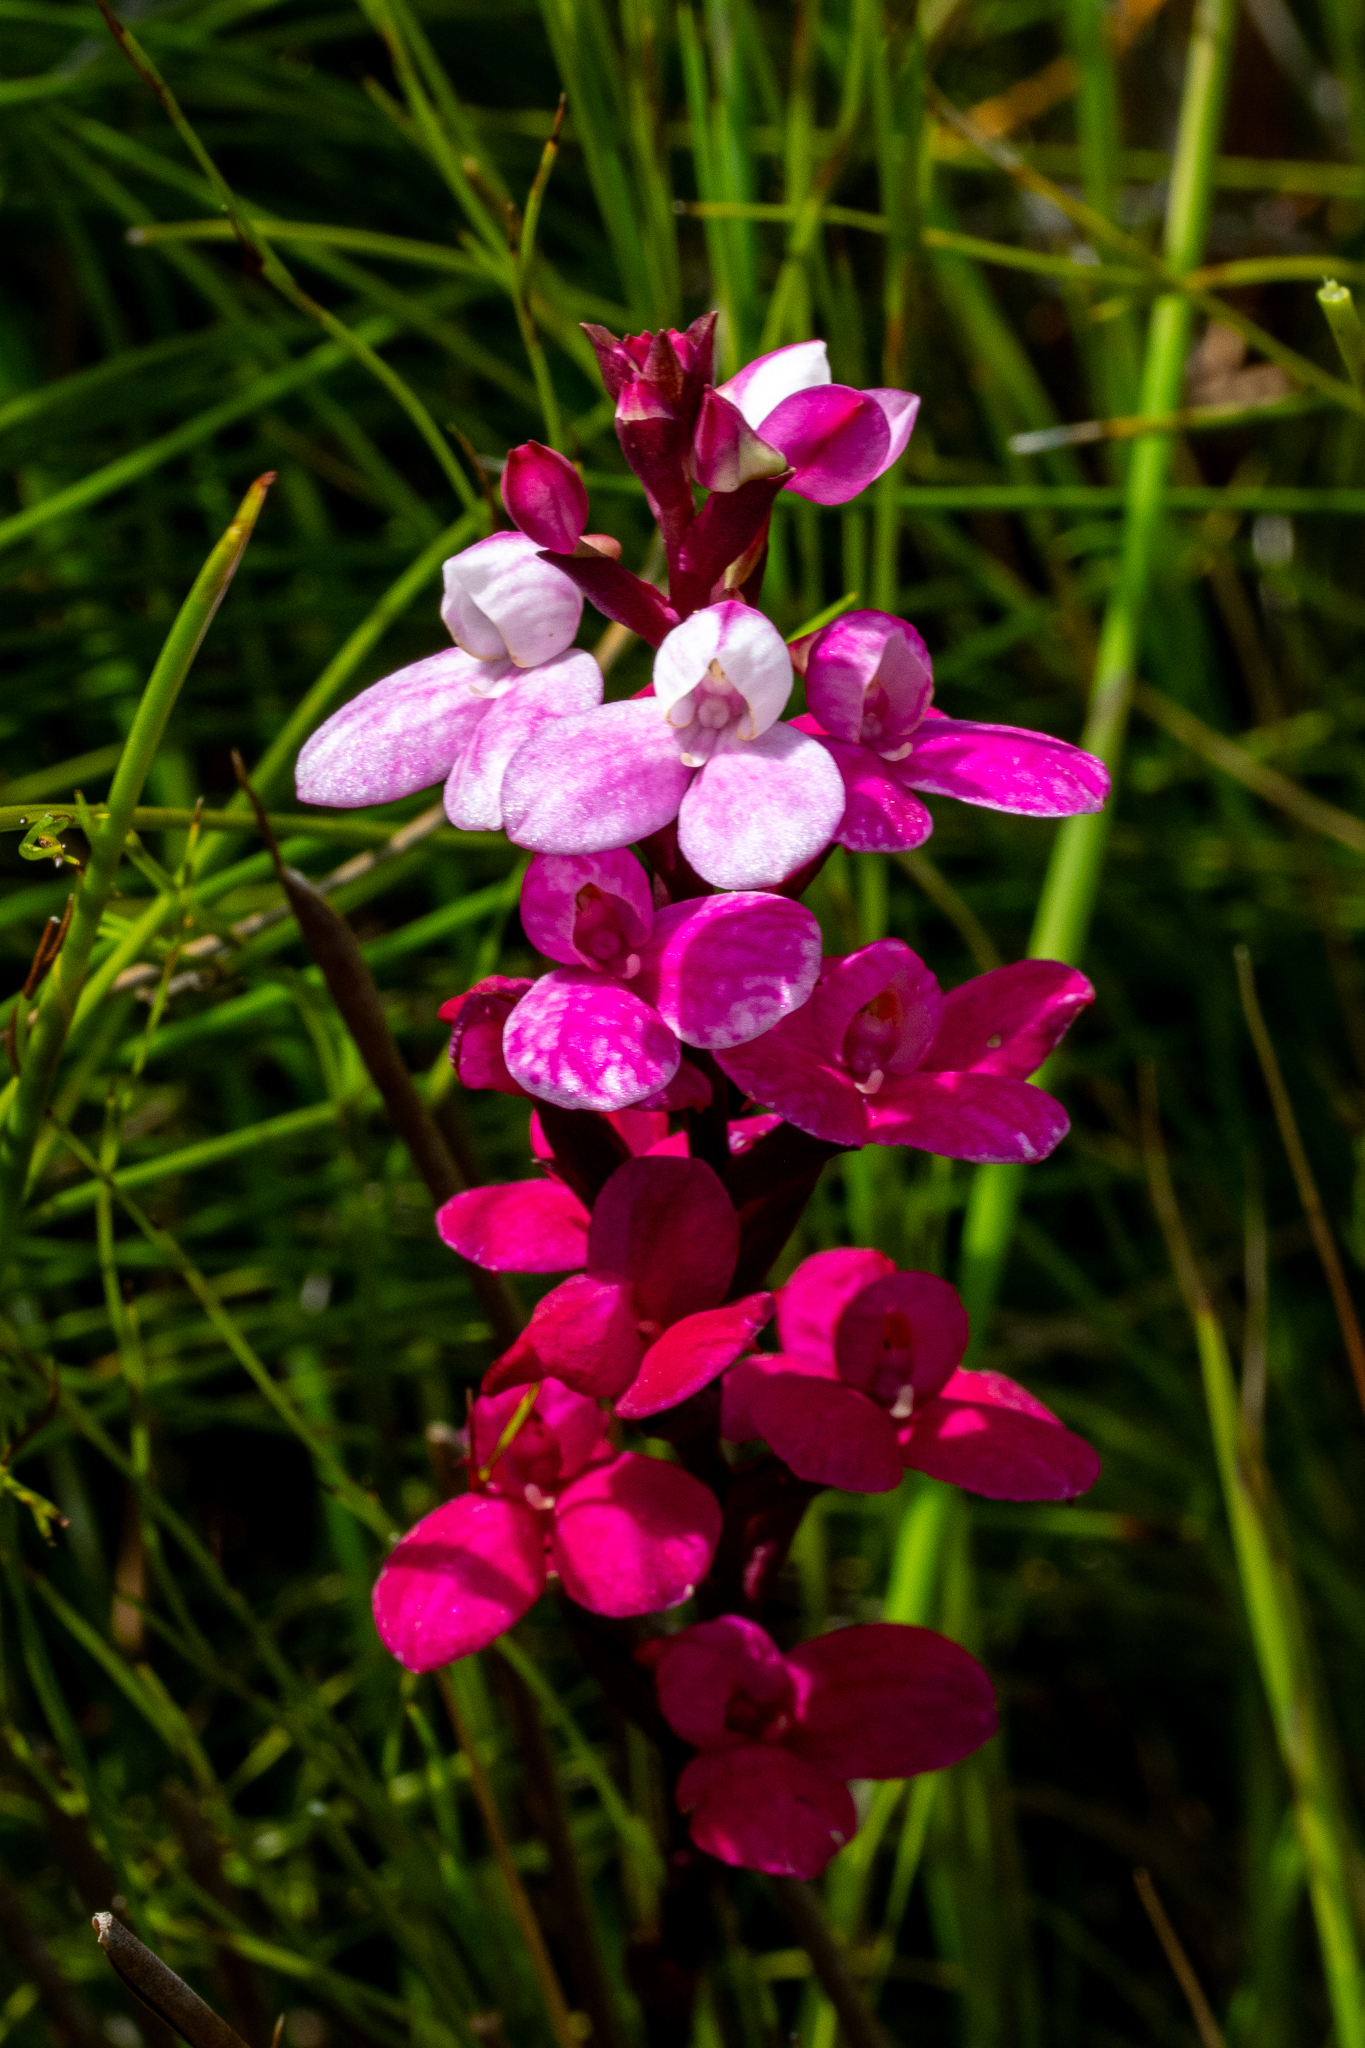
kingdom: Plantae
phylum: Tracheophyta
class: Liliopsida
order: Asparagales
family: Orchidaceae
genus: Disa
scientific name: Disa tripetaloides
